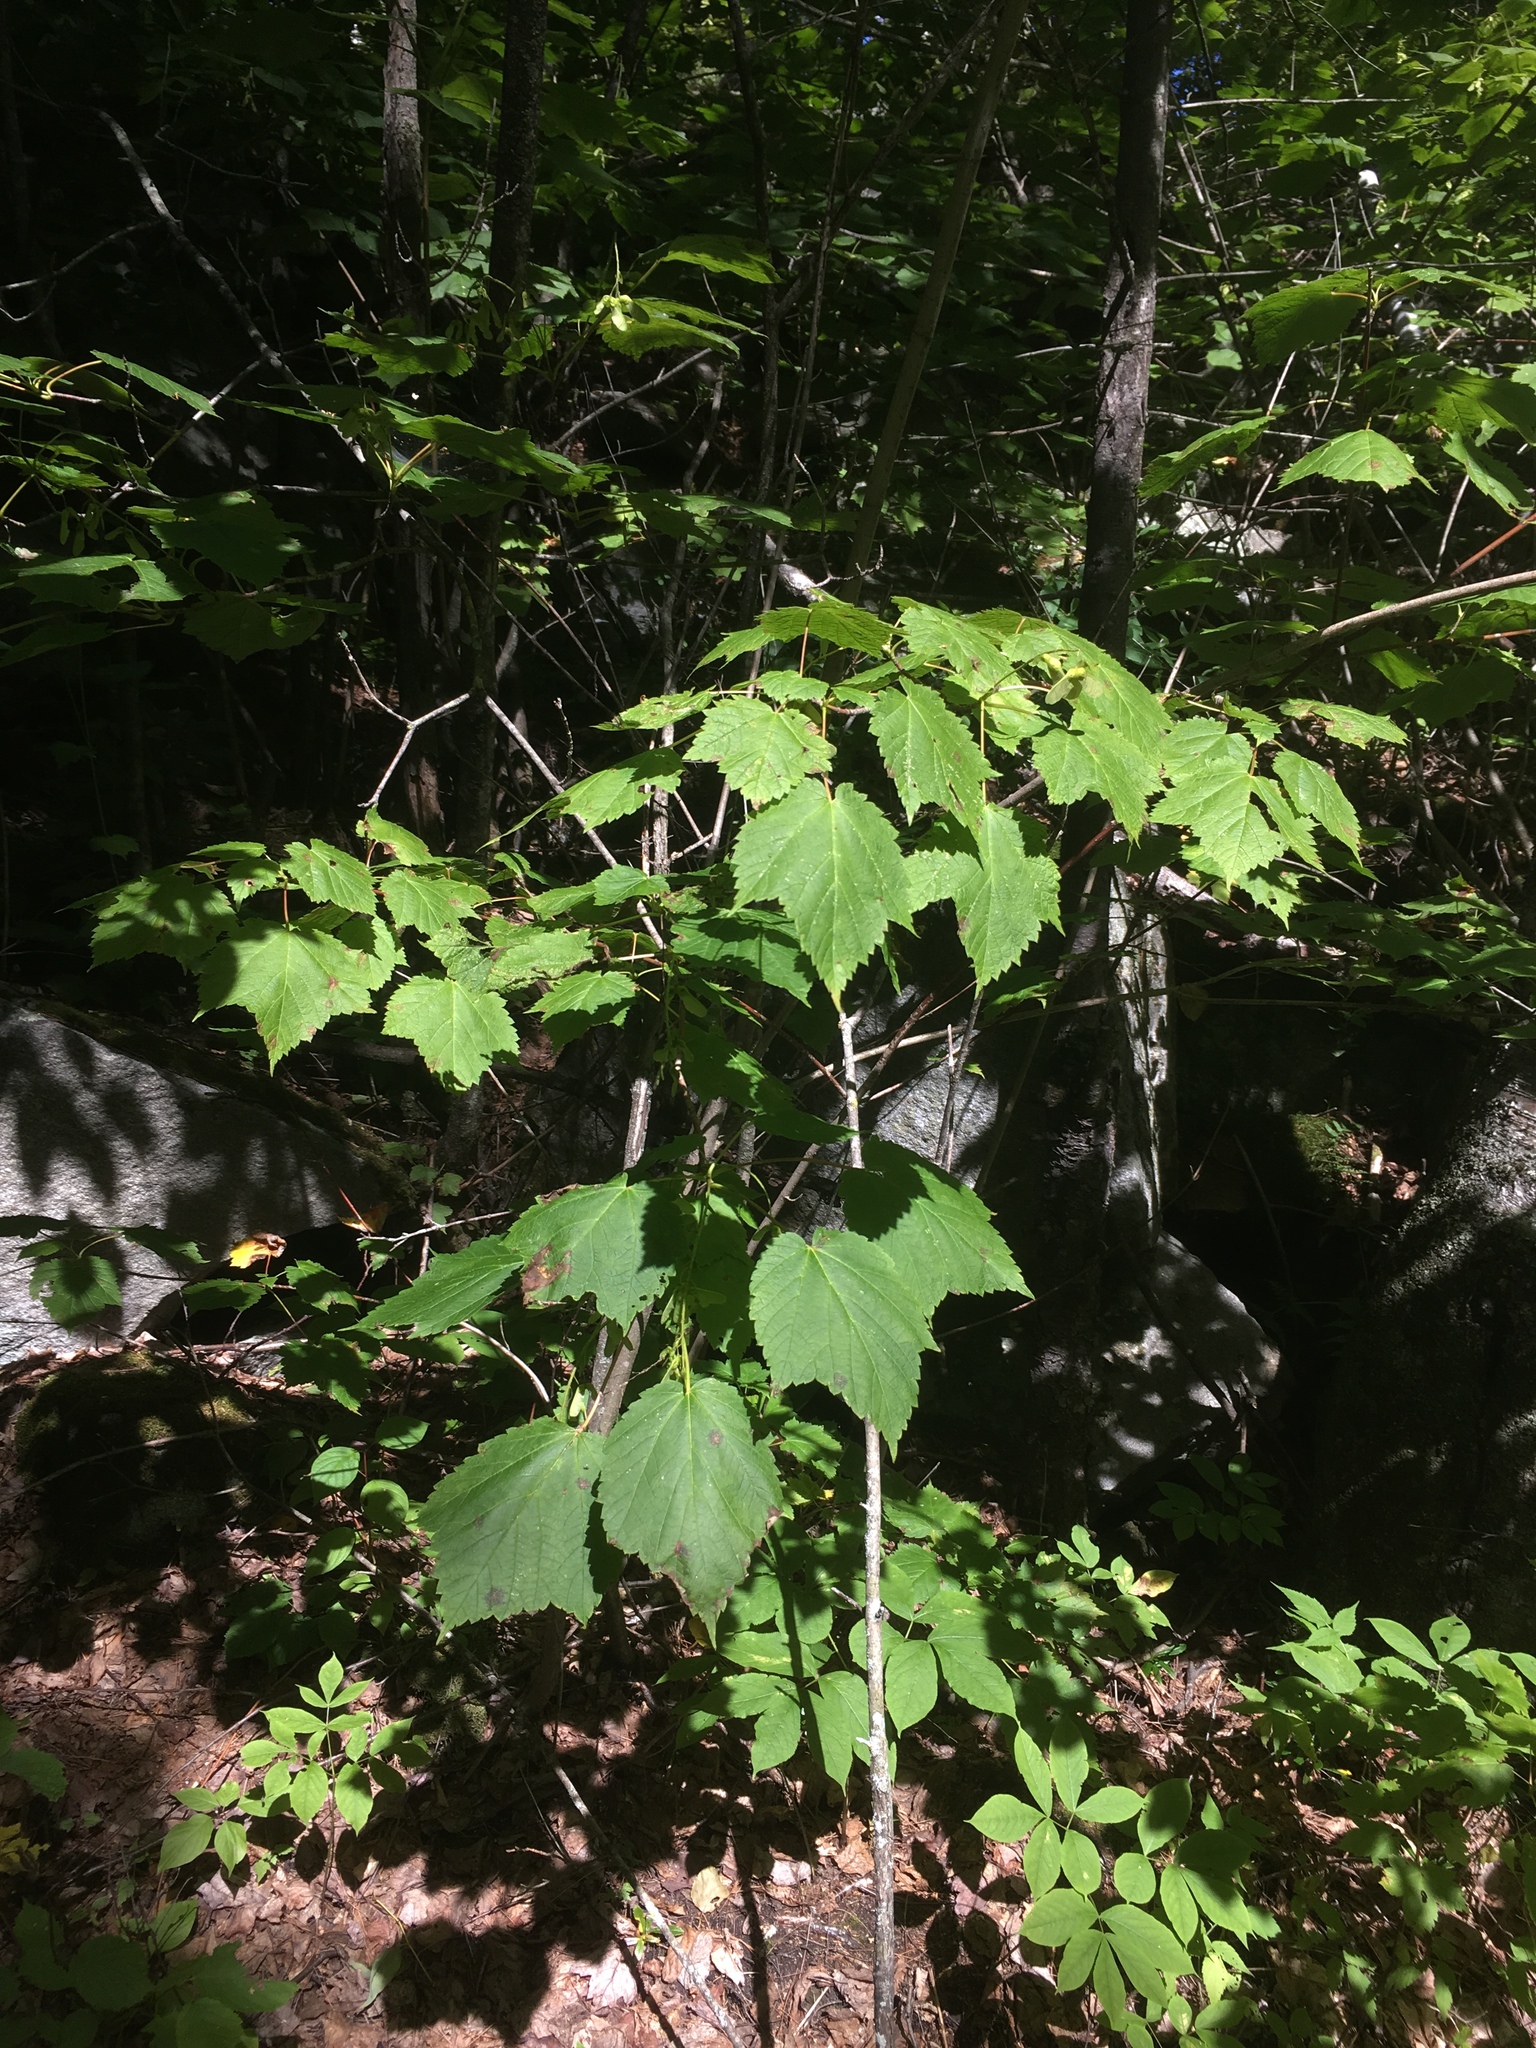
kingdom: Plantae
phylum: Tracheophyta
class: Magnoliopsida
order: Sapindales
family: Sapindaceae
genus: Acer
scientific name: Acer spicatum
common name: Mountain maple
